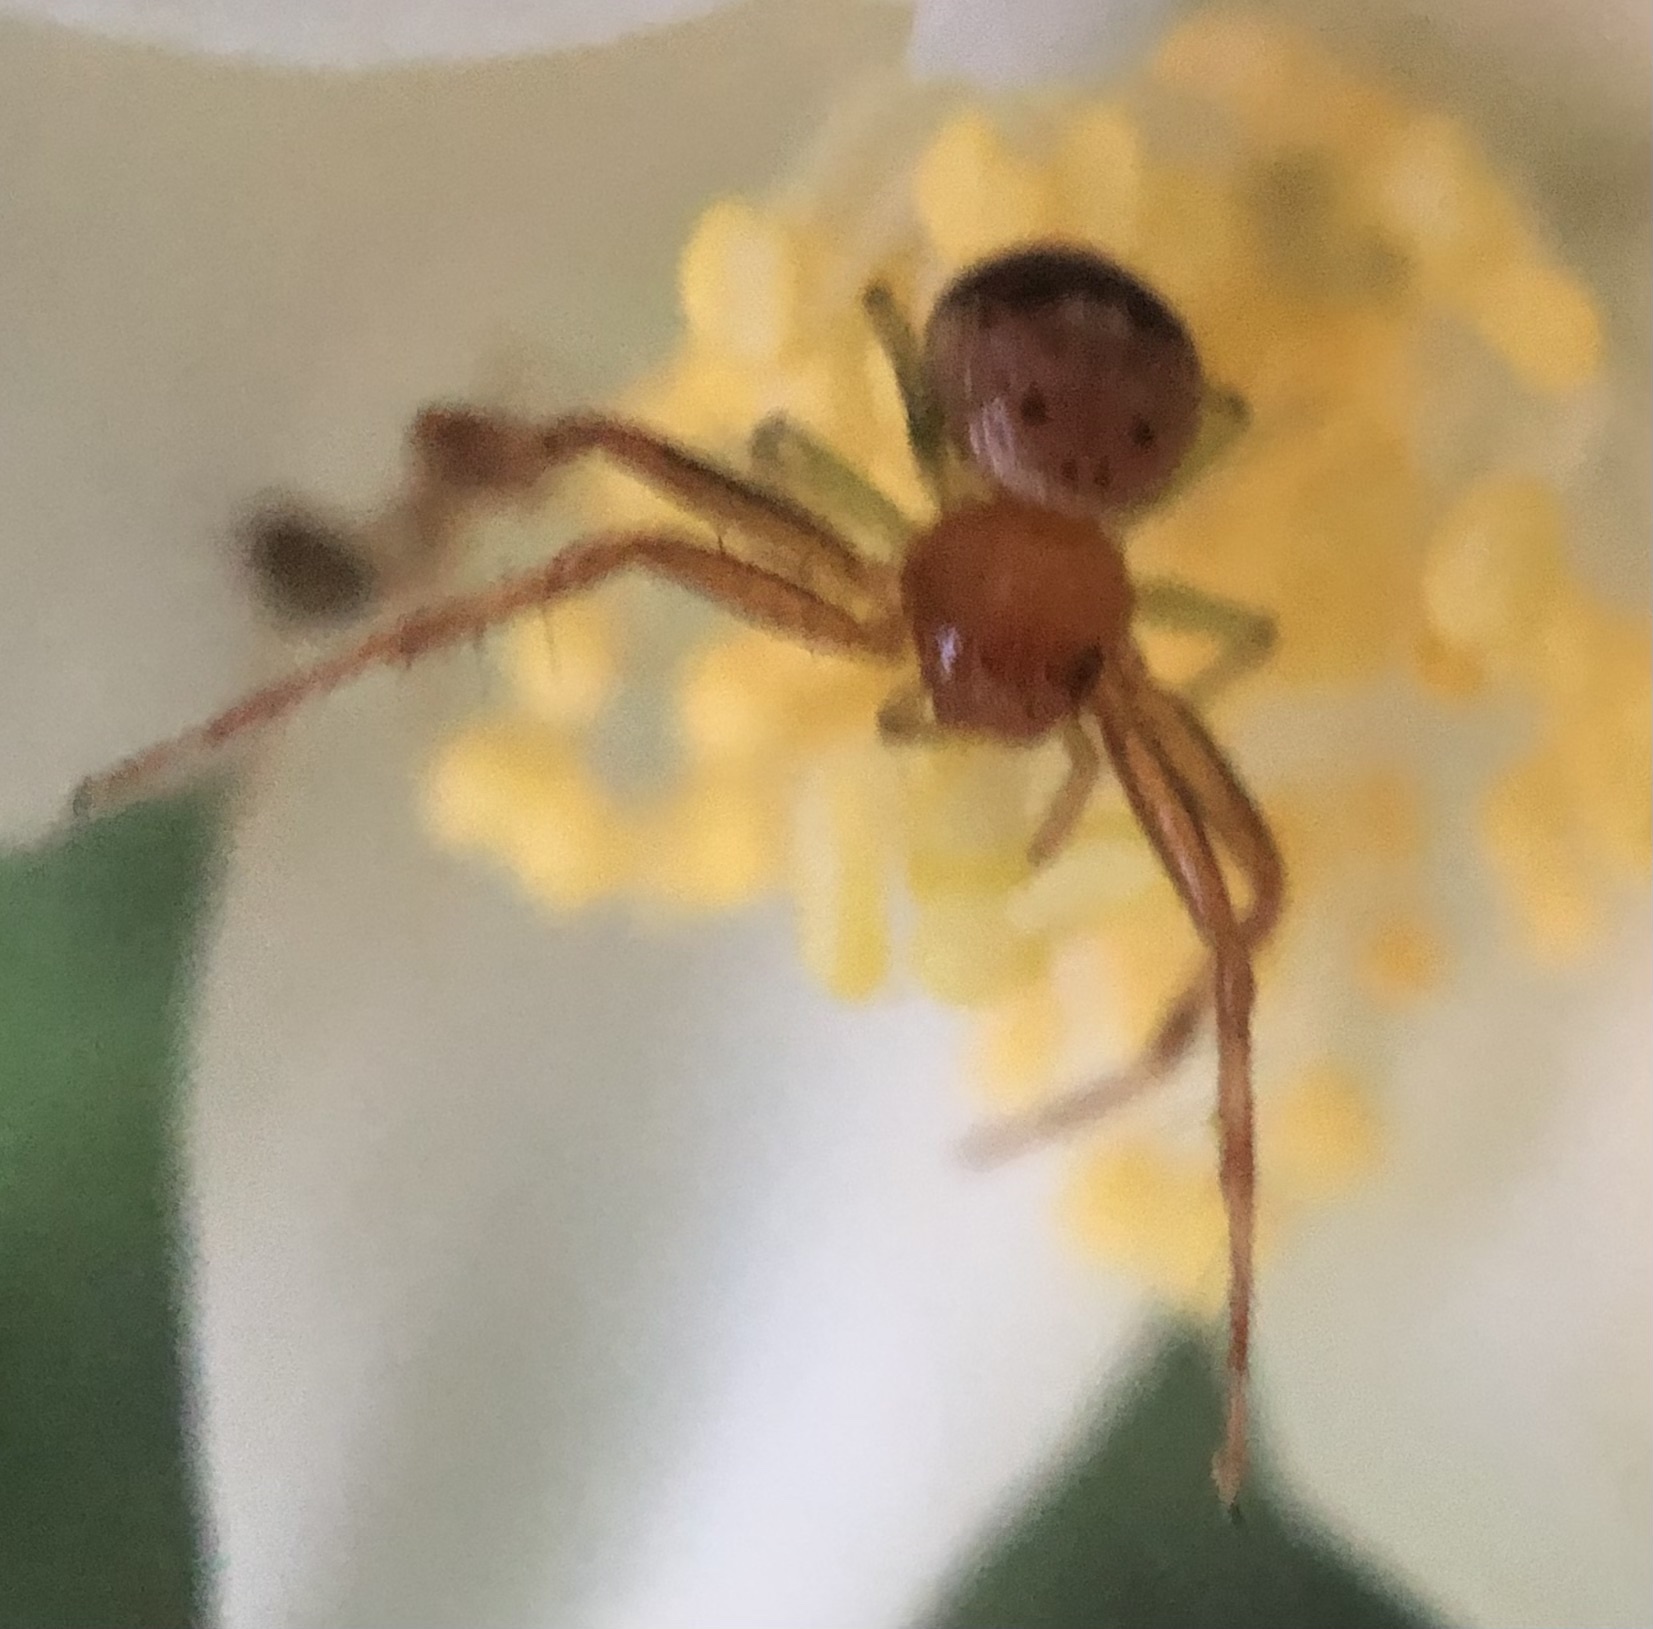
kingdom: Animalia
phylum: Arthropoda
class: Arachnida
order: Araneae
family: Thomisidae
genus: Synema
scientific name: Synema parvulum
